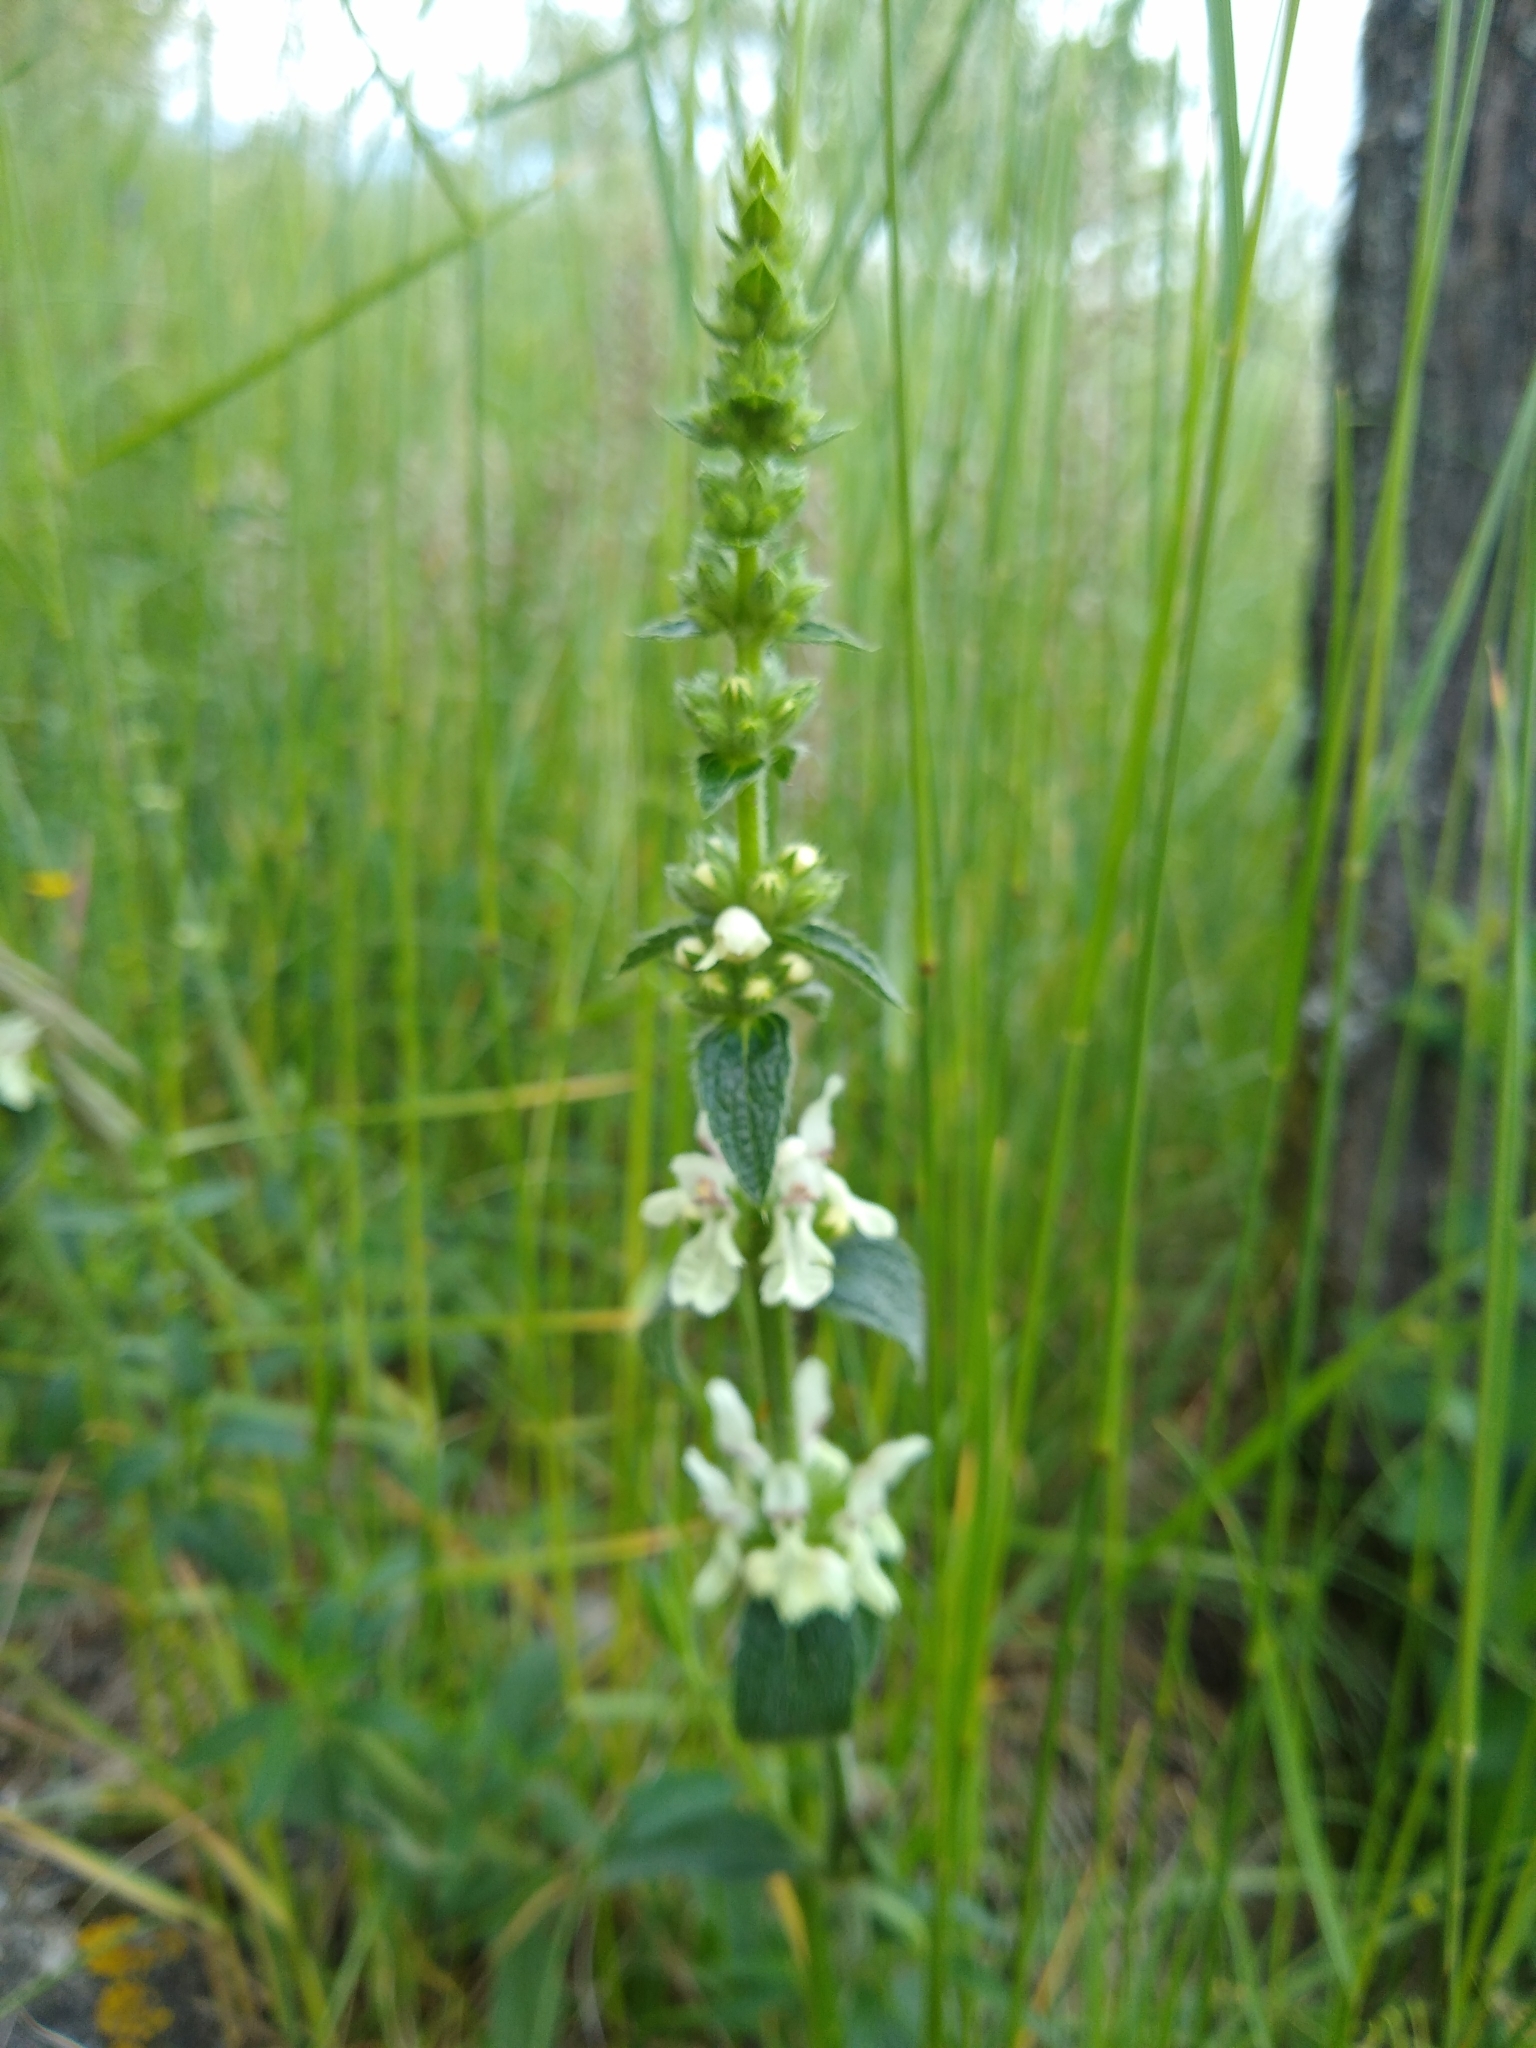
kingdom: Plantae
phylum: Tracheophyta
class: Magnoliopsida
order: Lamiales
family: Lamiaceae
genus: Stachys
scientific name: Stachys recta
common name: Perennial yellow-woundwort
